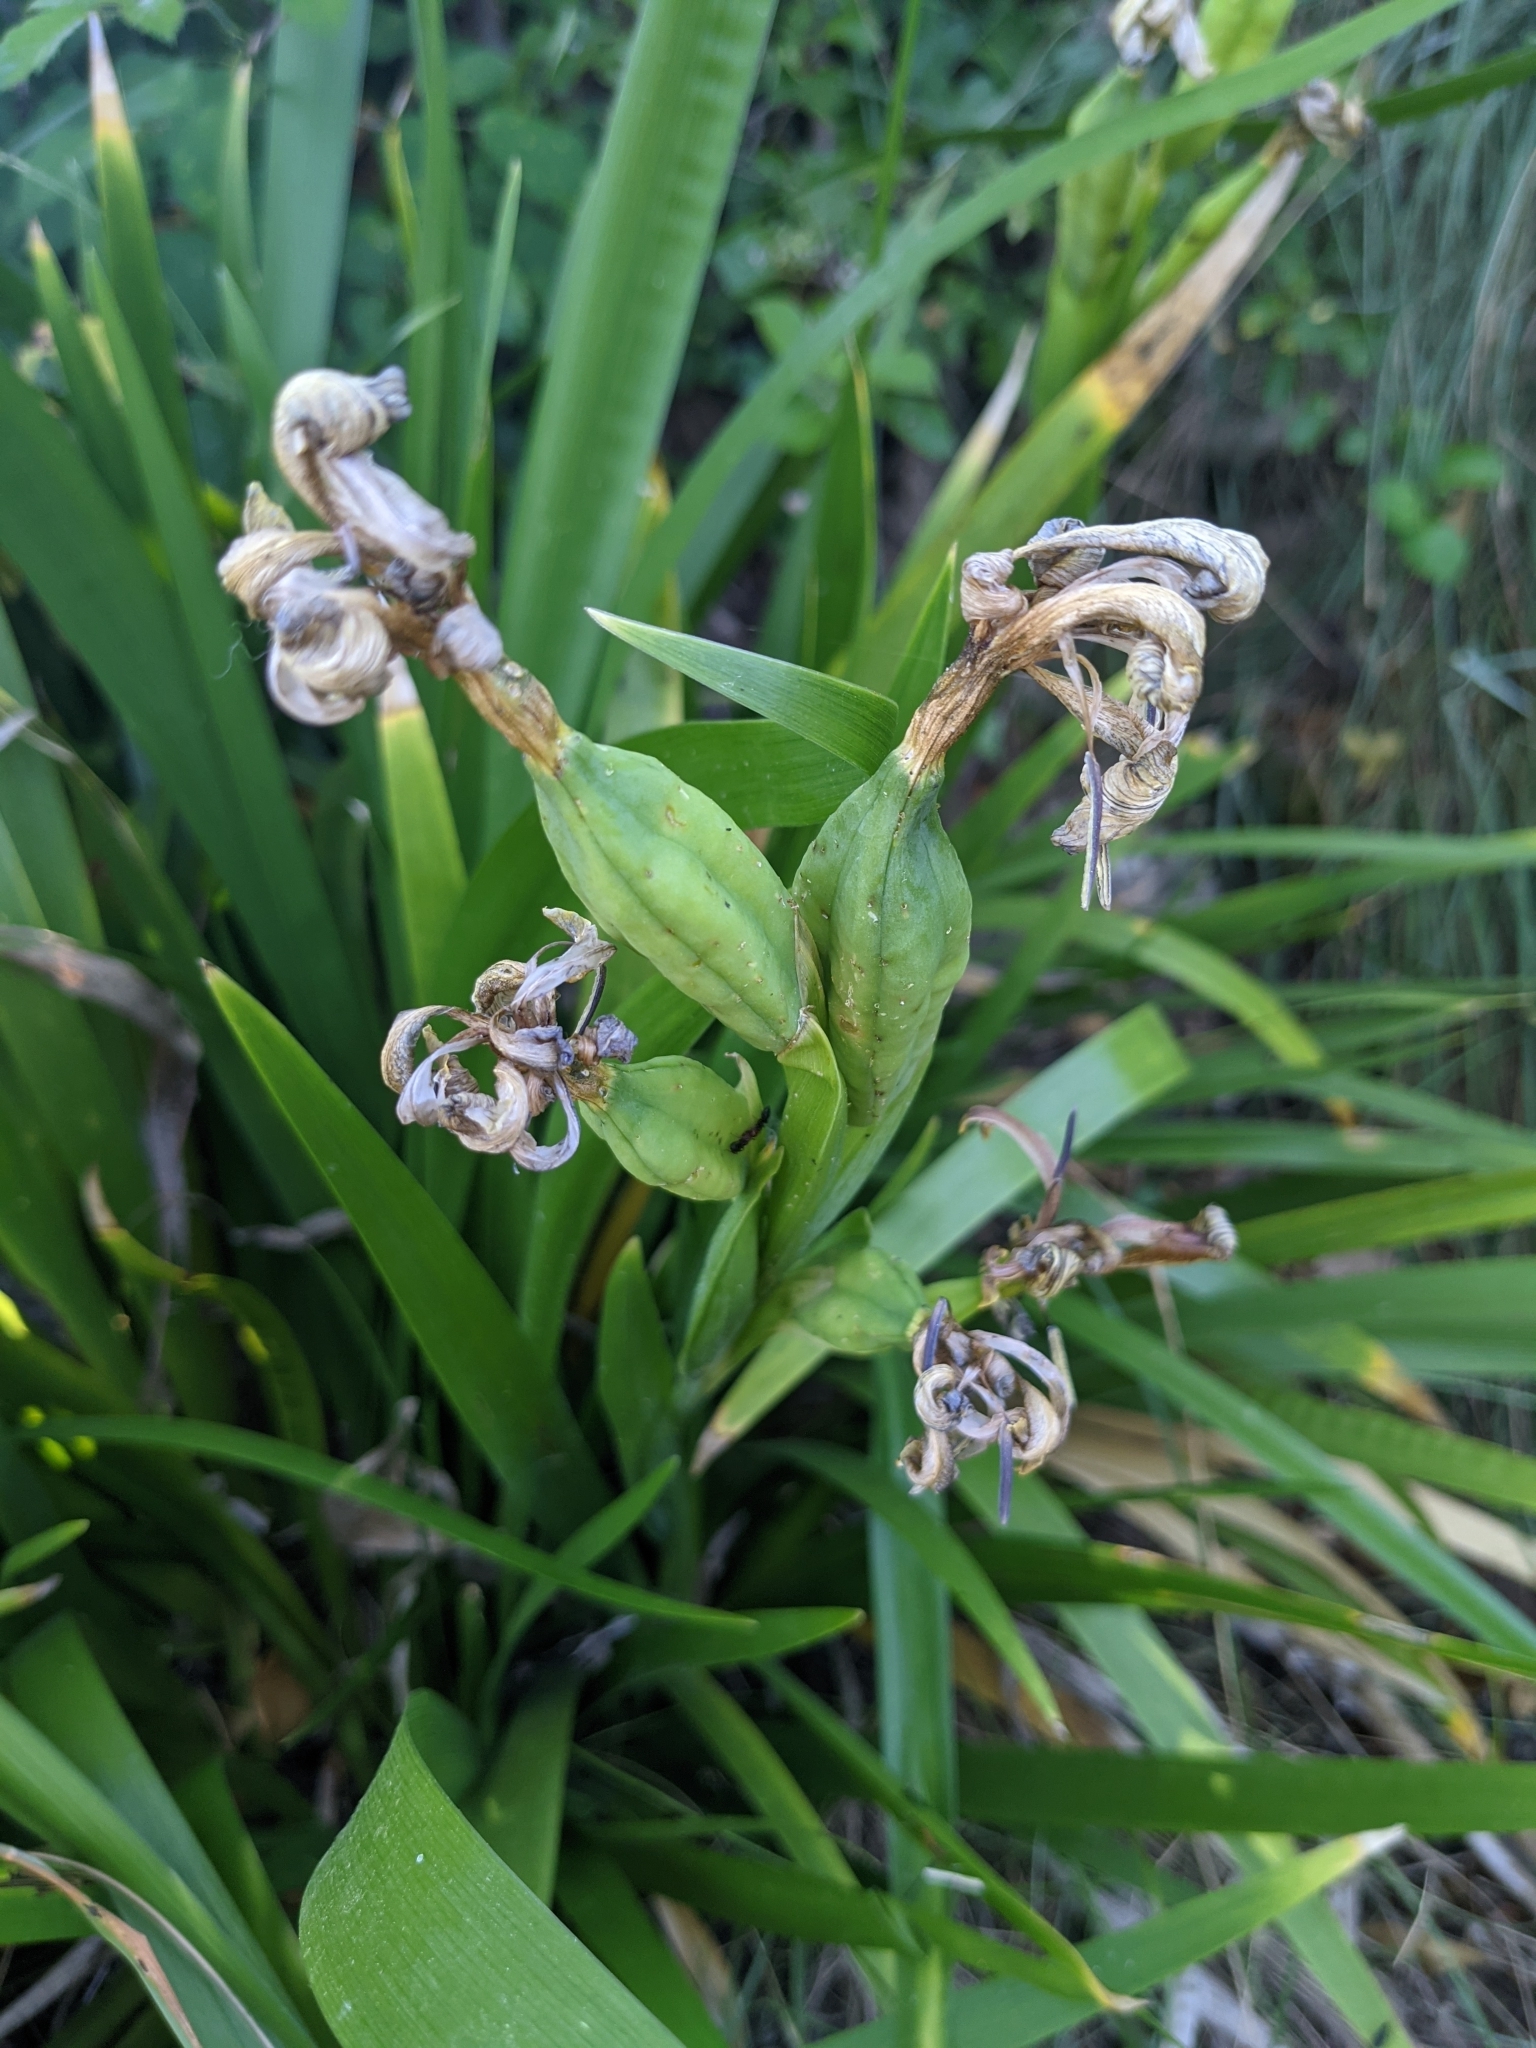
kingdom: Plantae
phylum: Tracheophyta
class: Liliopsida
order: Asparagales
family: Iridaceae
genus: Iris
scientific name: Iris foetidissima
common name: Stinking iris
